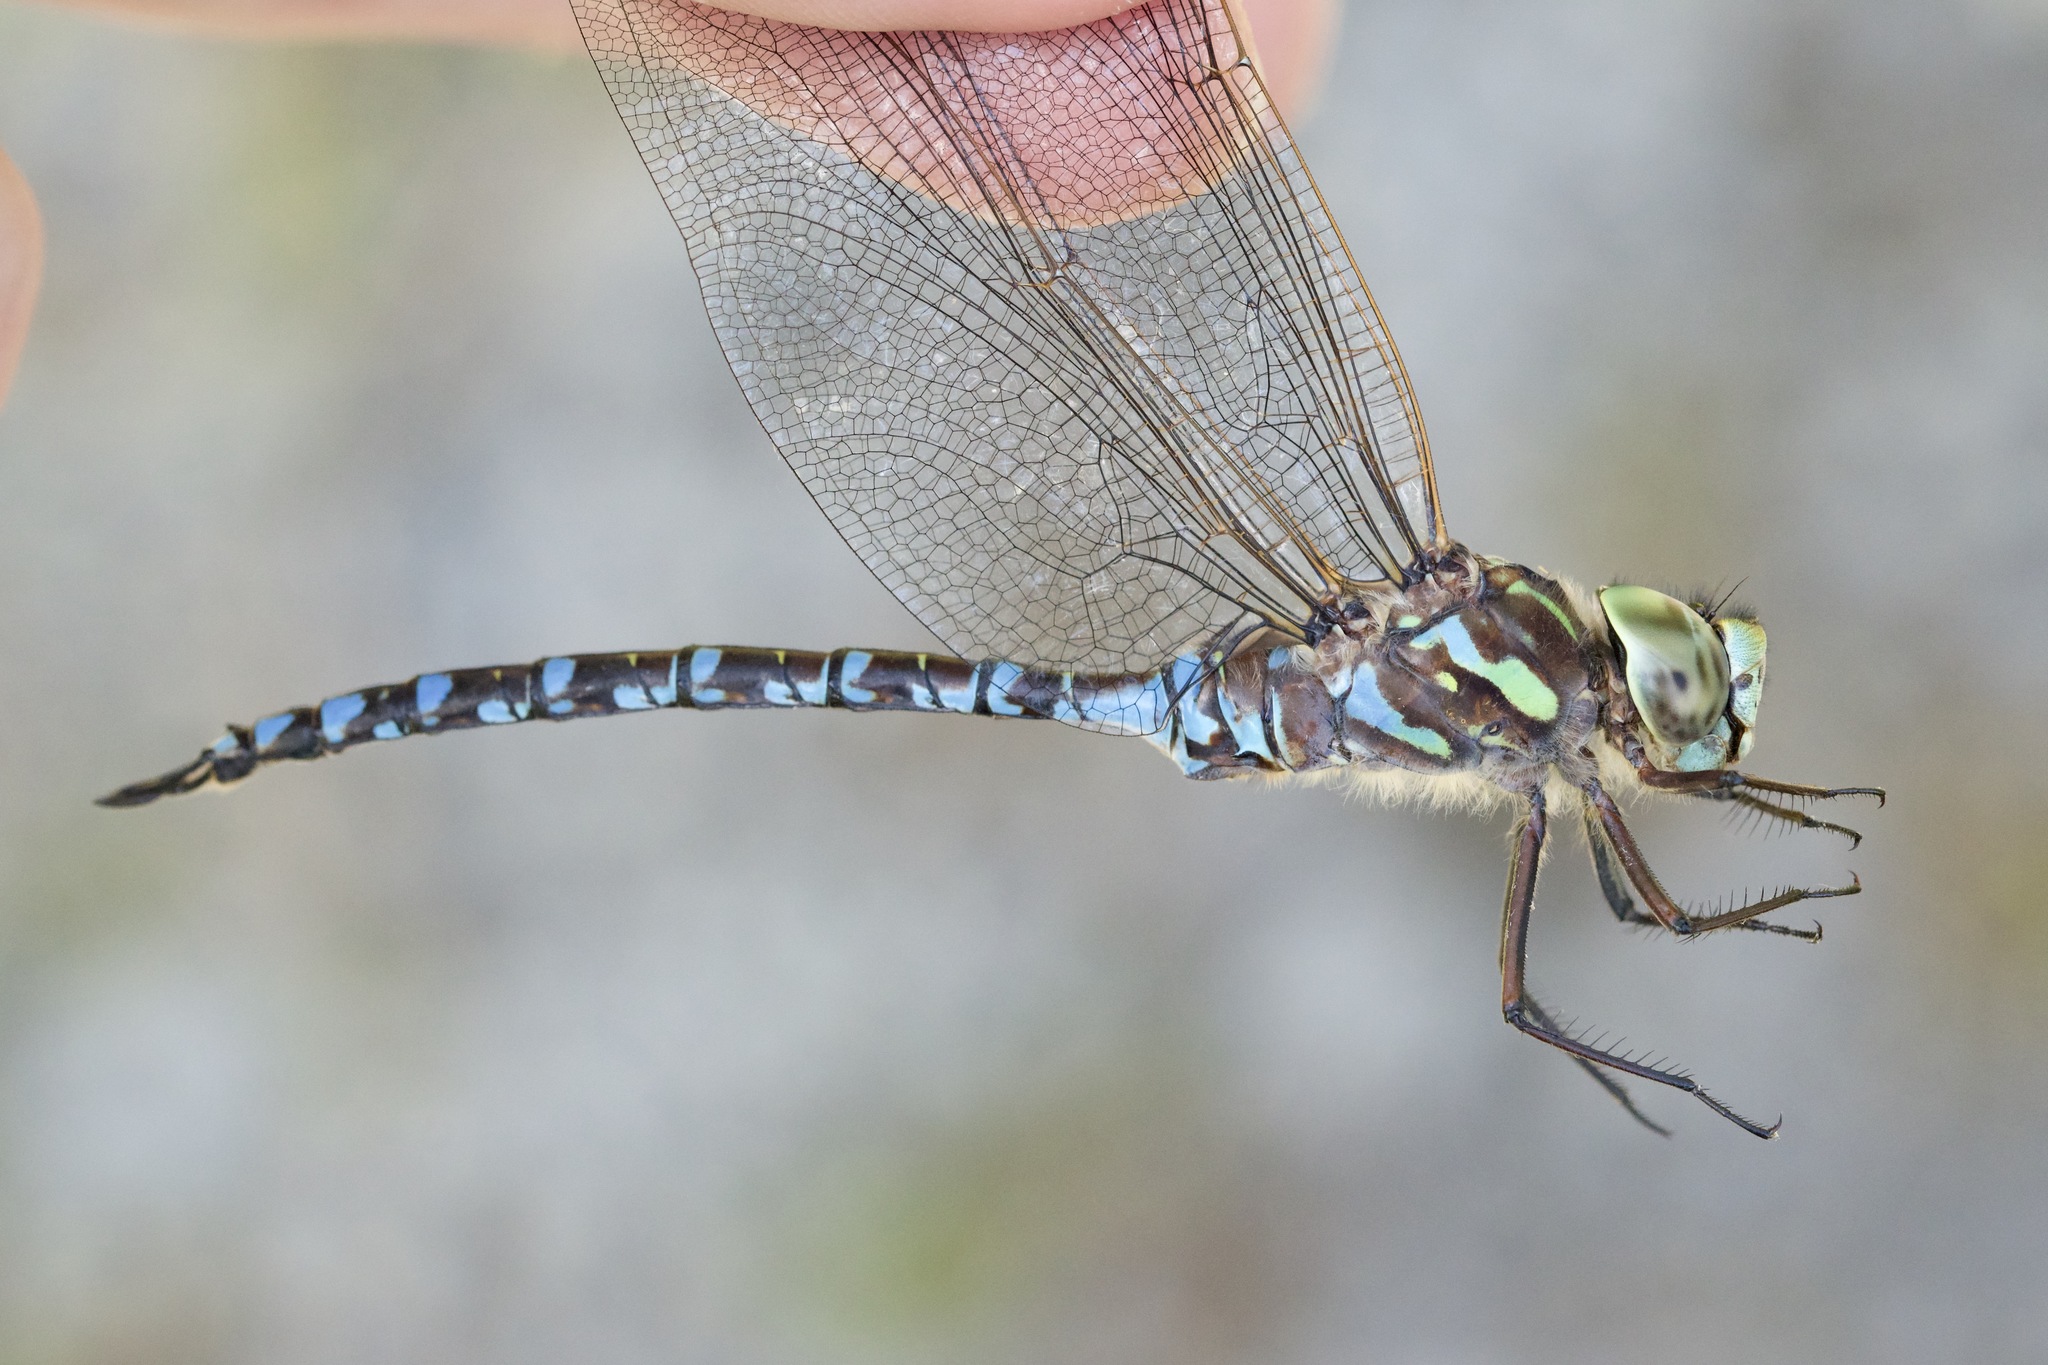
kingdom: Animalia
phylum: Arthropoda
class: Insecta
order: Odonata
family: Aeshnidae
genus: Aeshna
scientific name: Aeshna canadensis
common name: Canada darner
